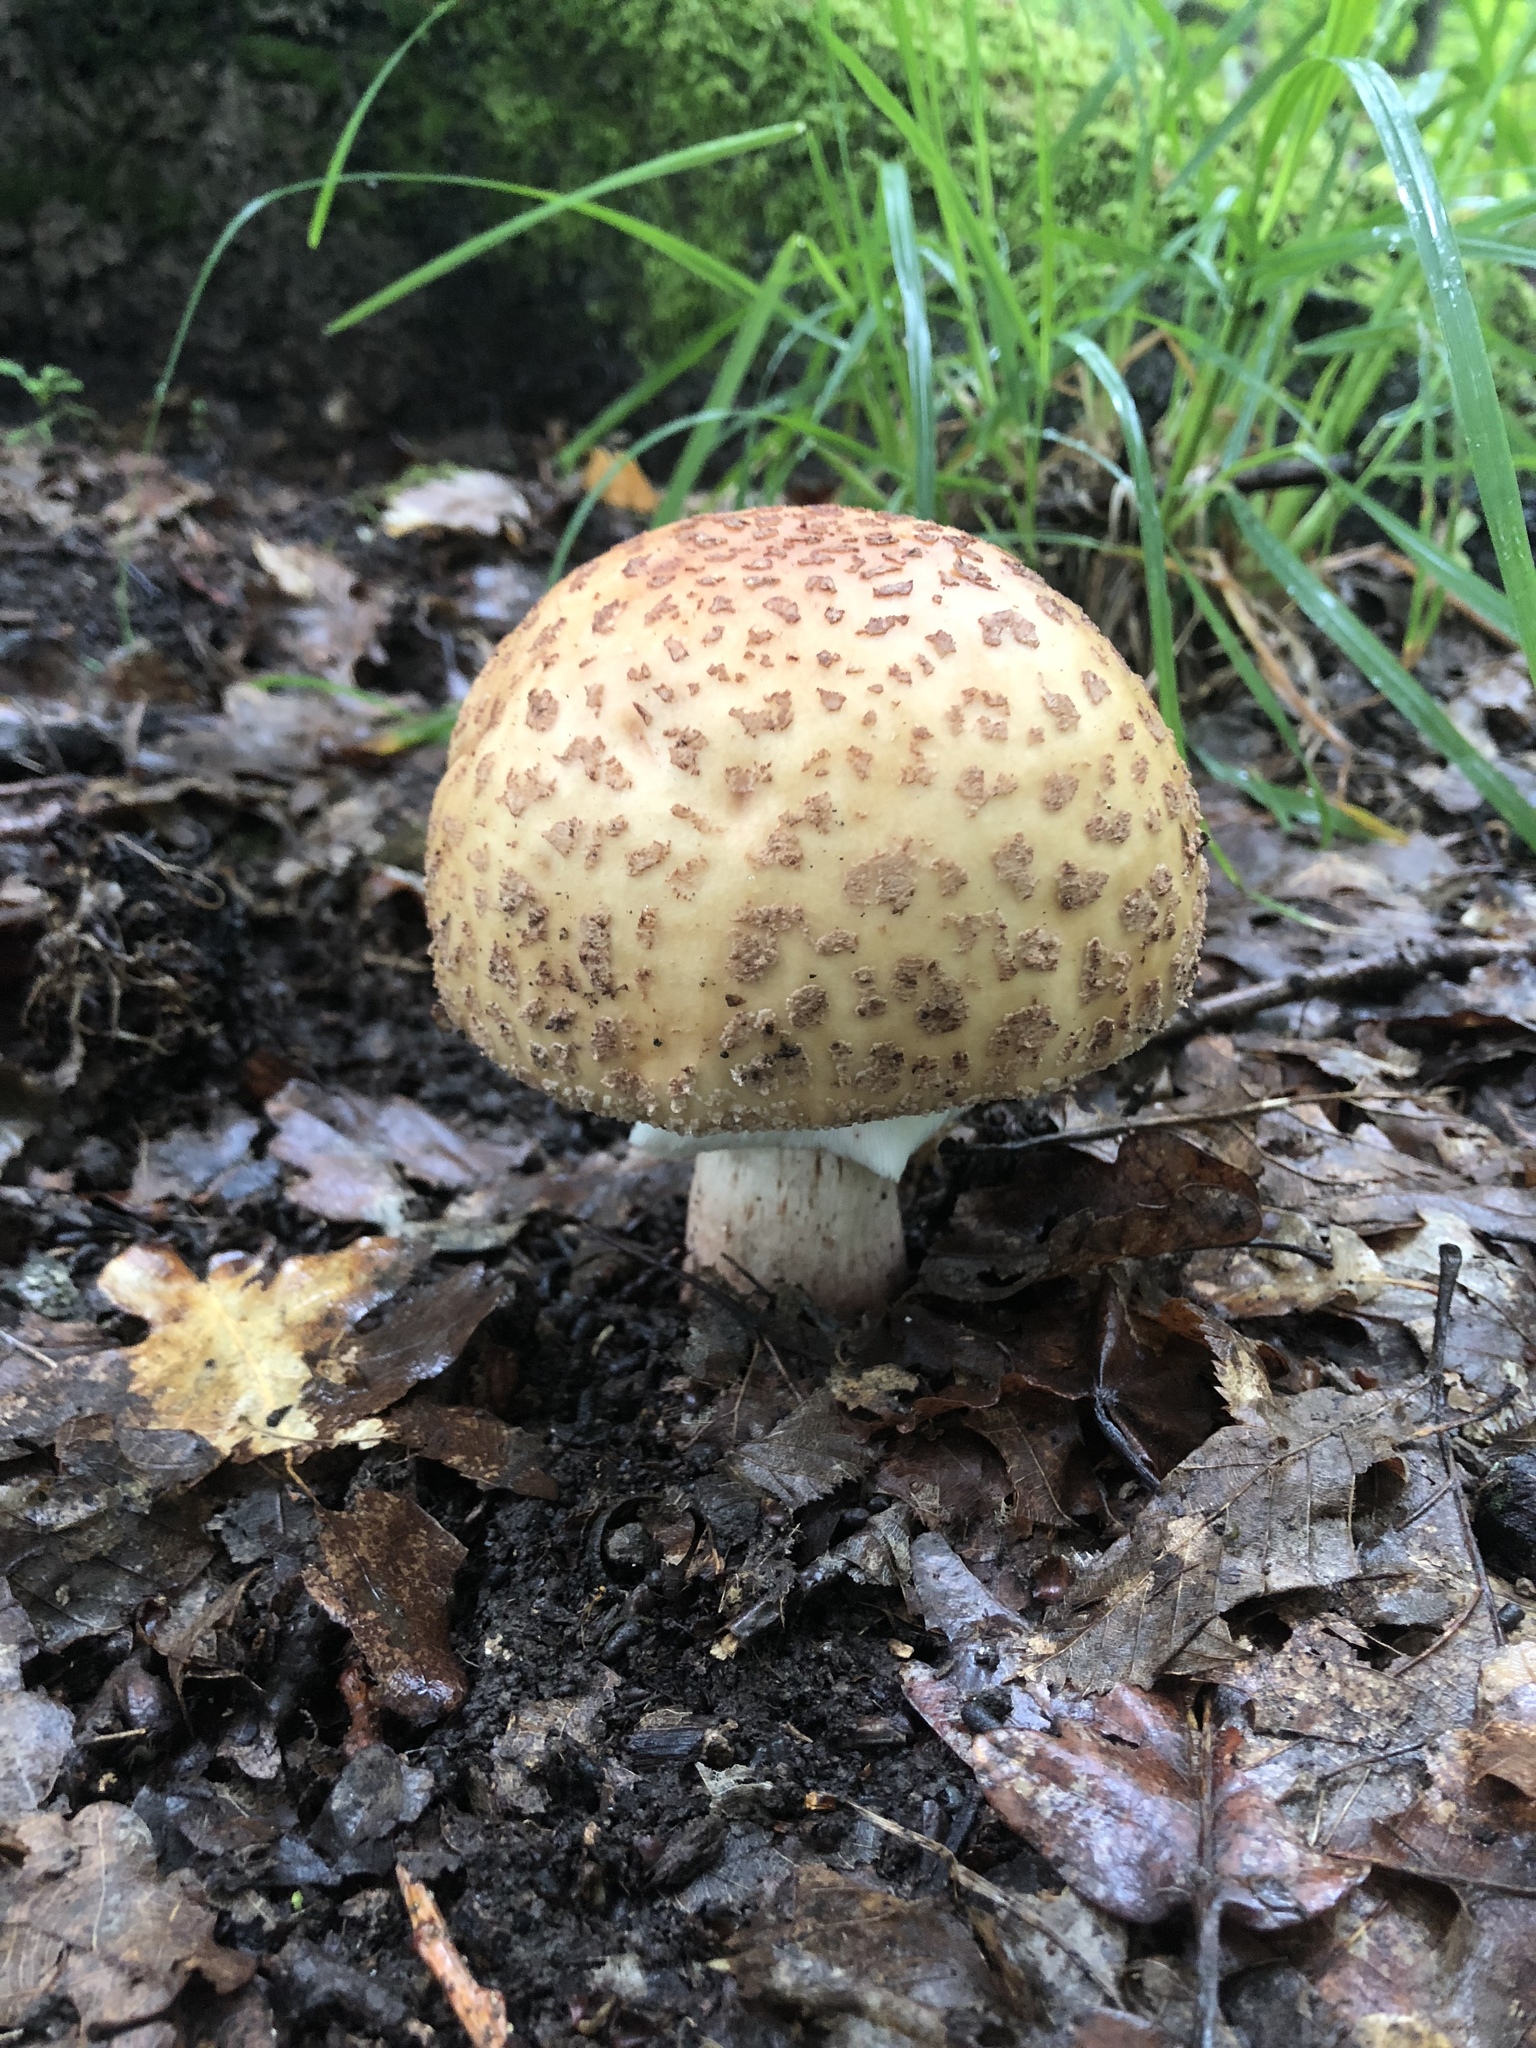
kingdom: Fungi
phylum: Basidiomycota
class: Agaricomycetes
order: Agaricales
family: Amanitaceae
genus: Amanita
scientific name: Amanita rubescens
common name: Blusher
